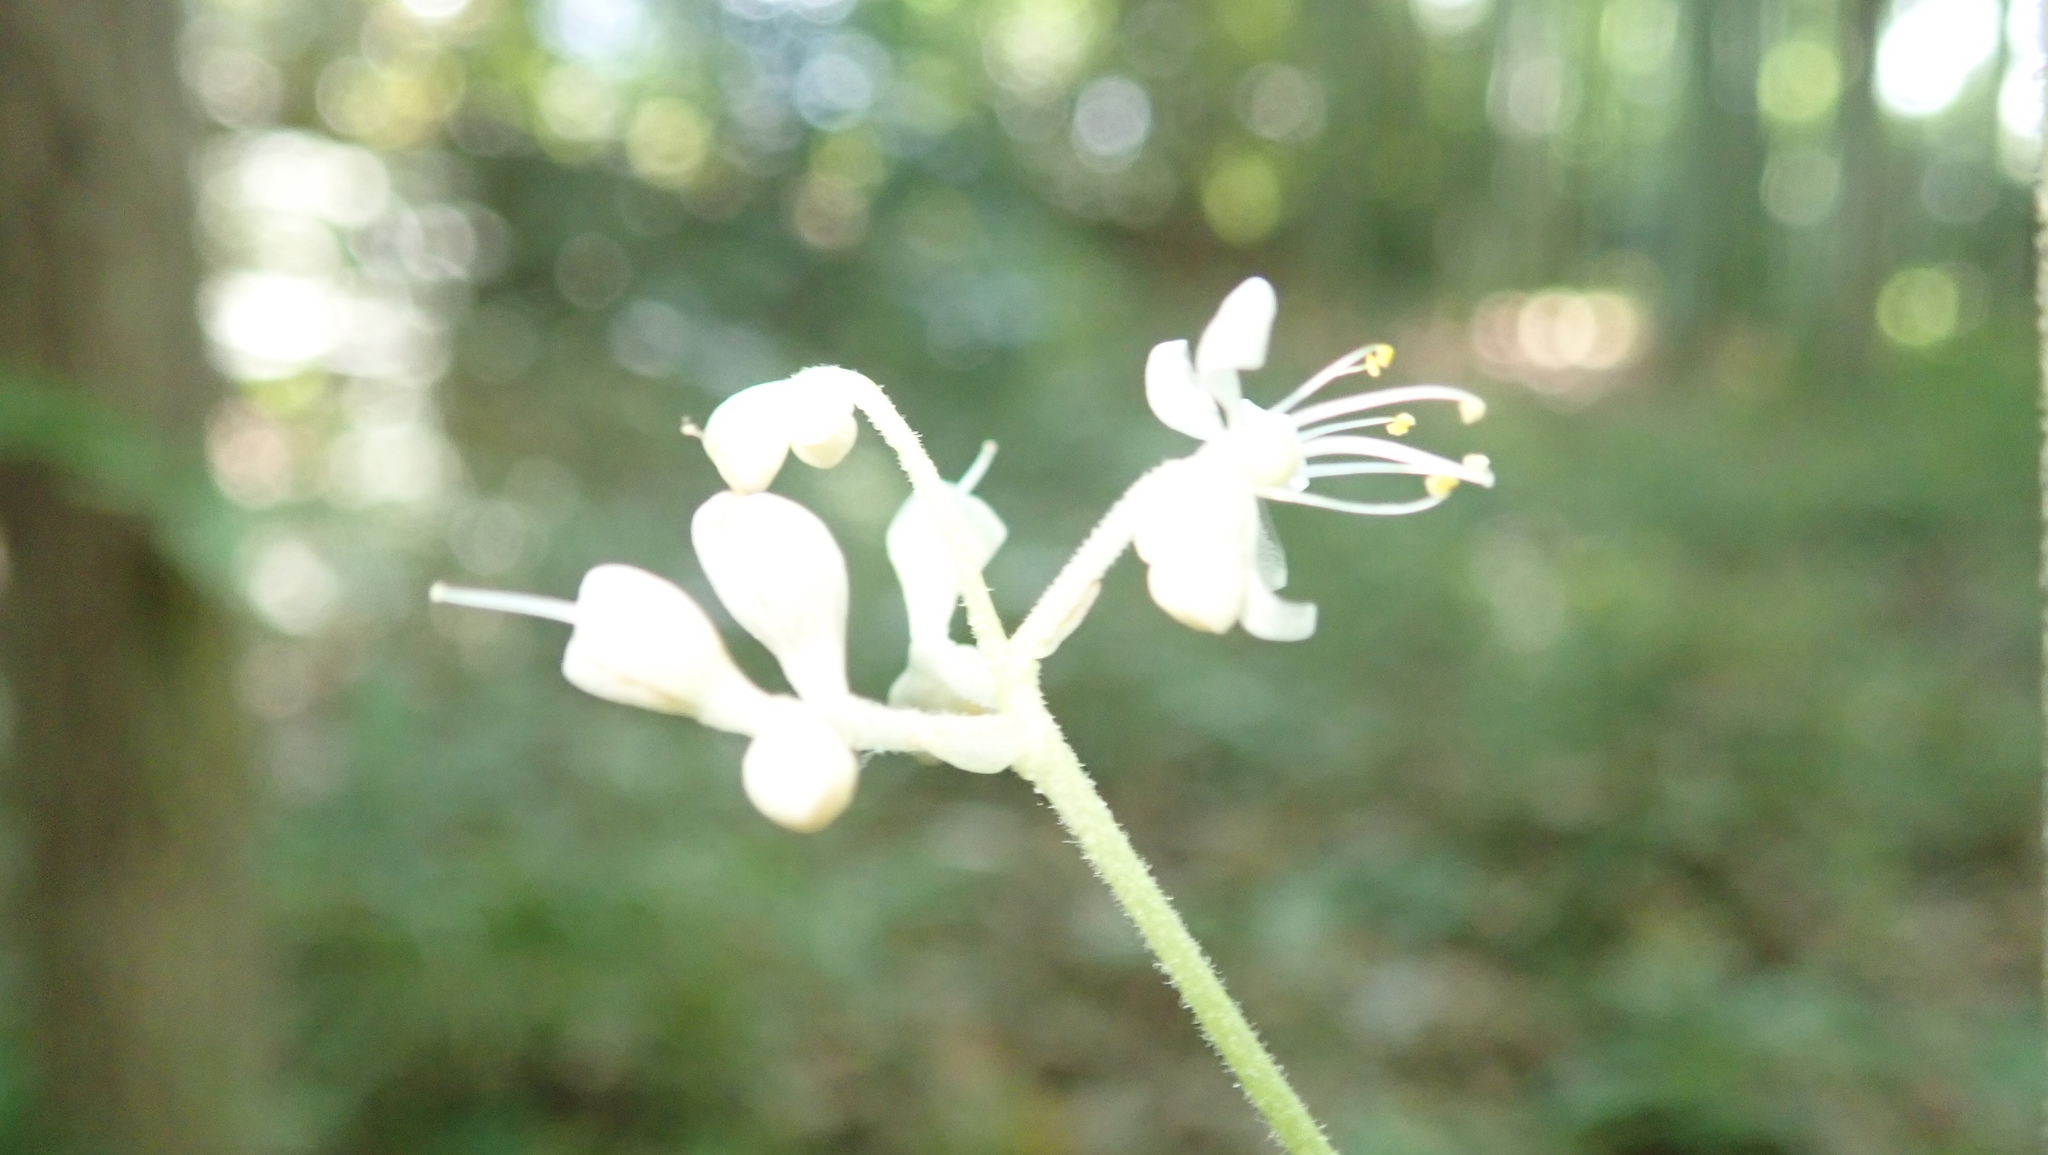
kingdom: Plantae
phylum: Tracheophyta
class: Liliopsida
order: Commelinales
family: Commelinaceae
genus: Pollia
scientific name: Pollia japonica
